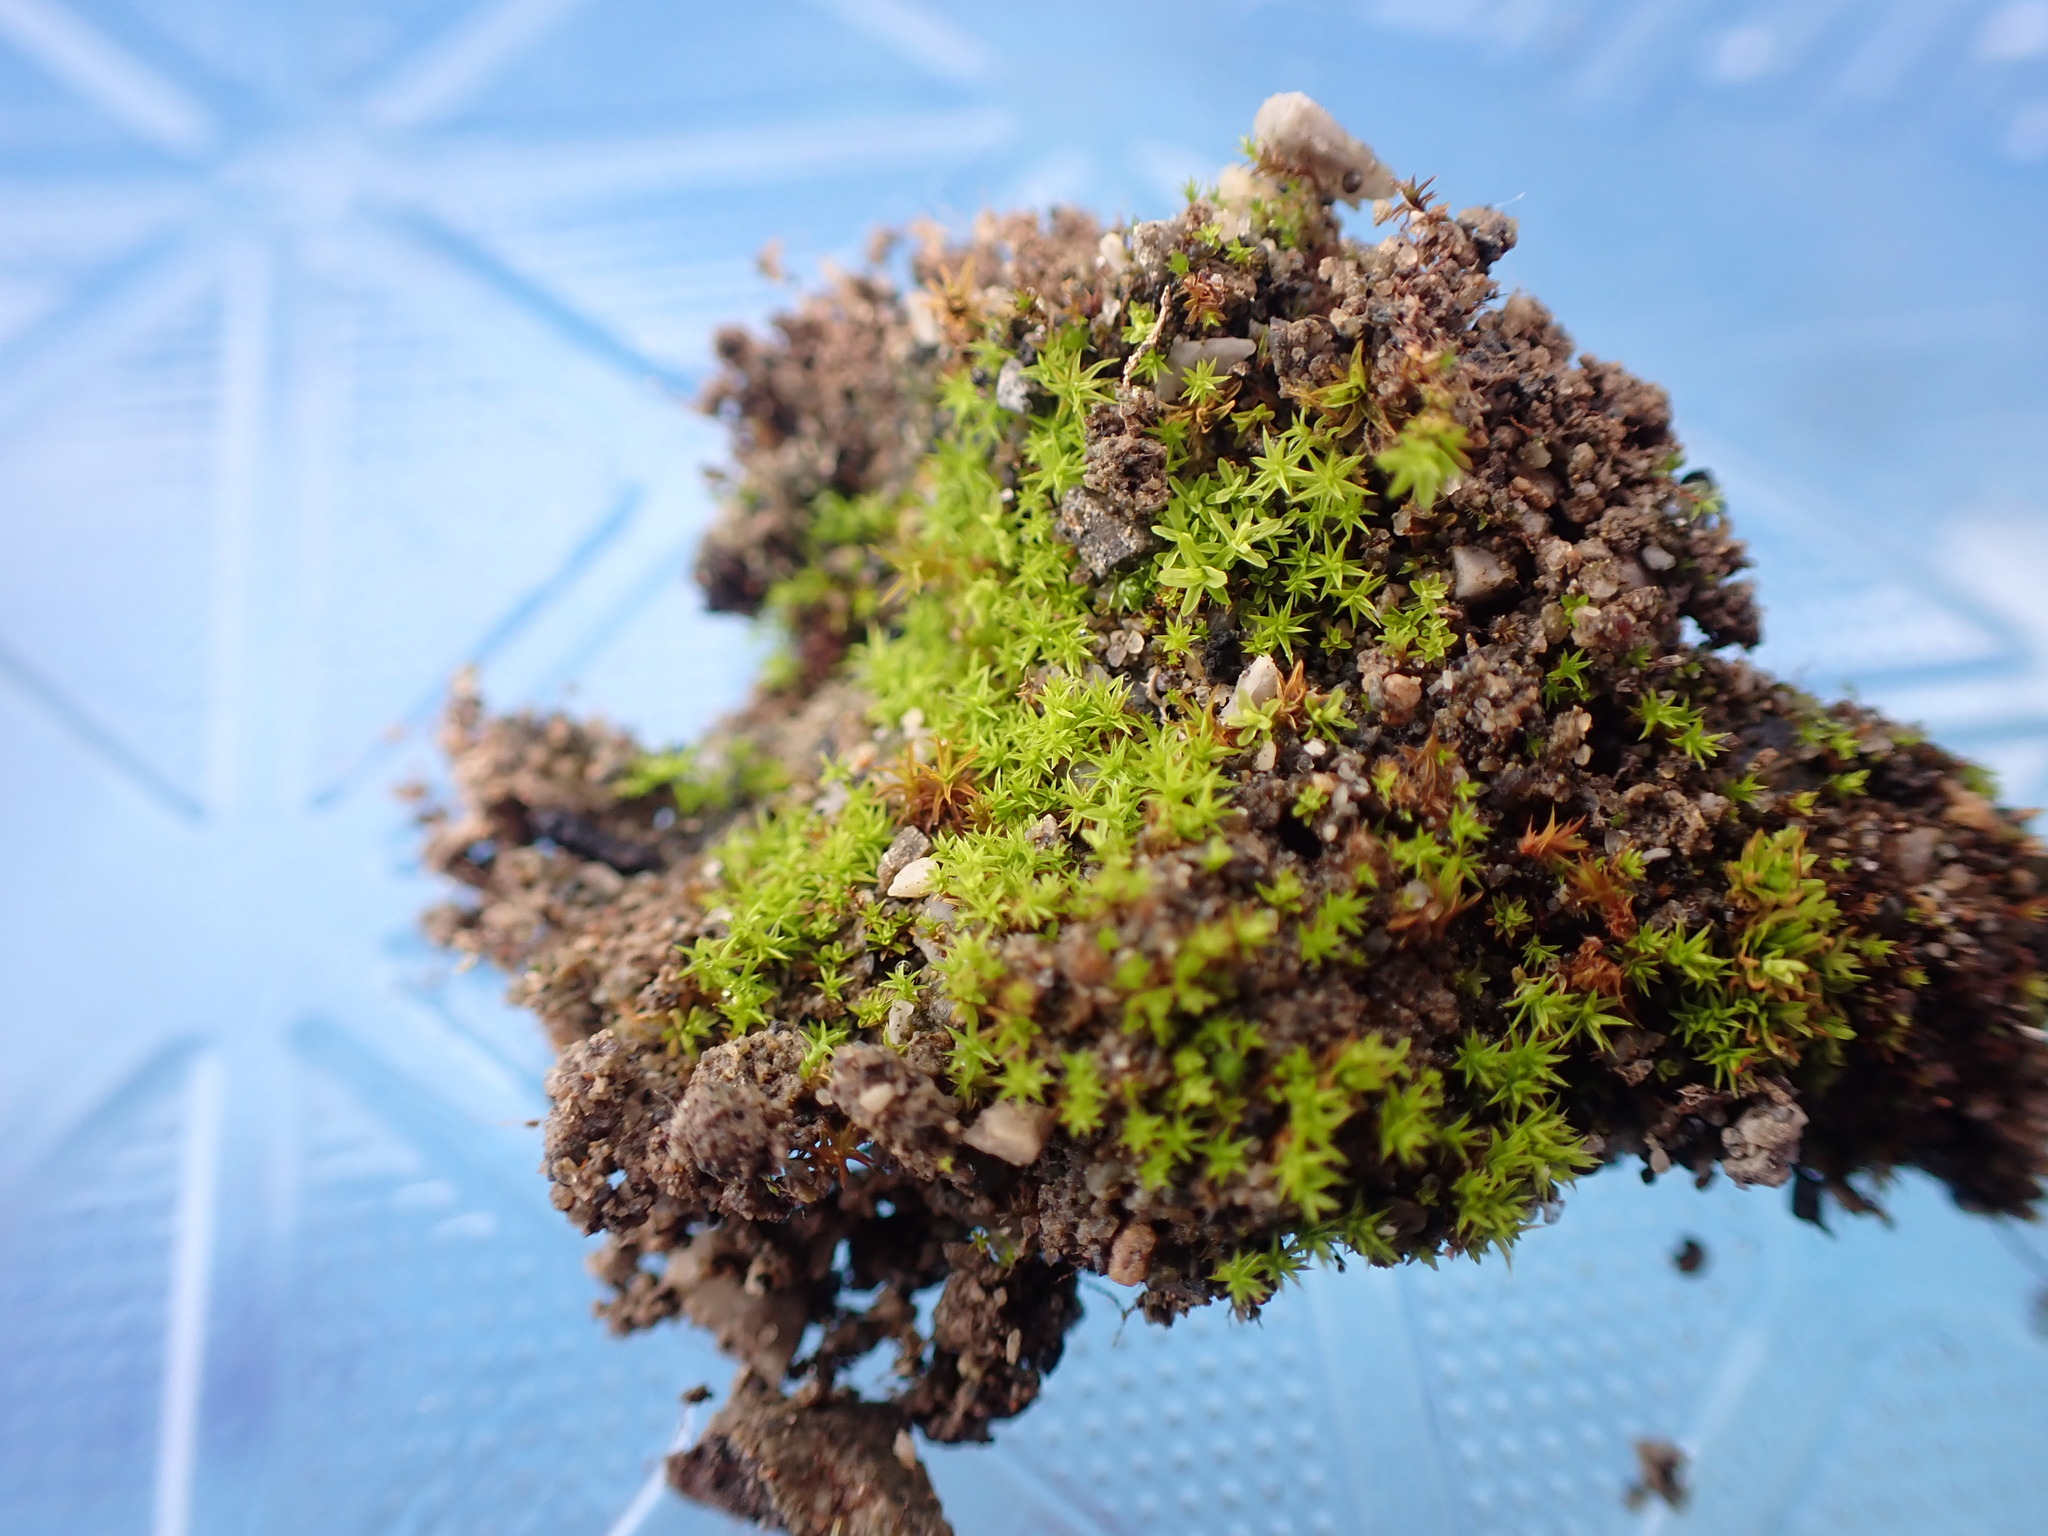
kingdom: Plantae
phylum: Bryophyta
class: Bryopsida
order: Pottiales
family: Pottiaceae
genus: Streblotrichum
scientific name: Streblotrichum convolutum
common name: Lesser bird's-claw beard-moss
